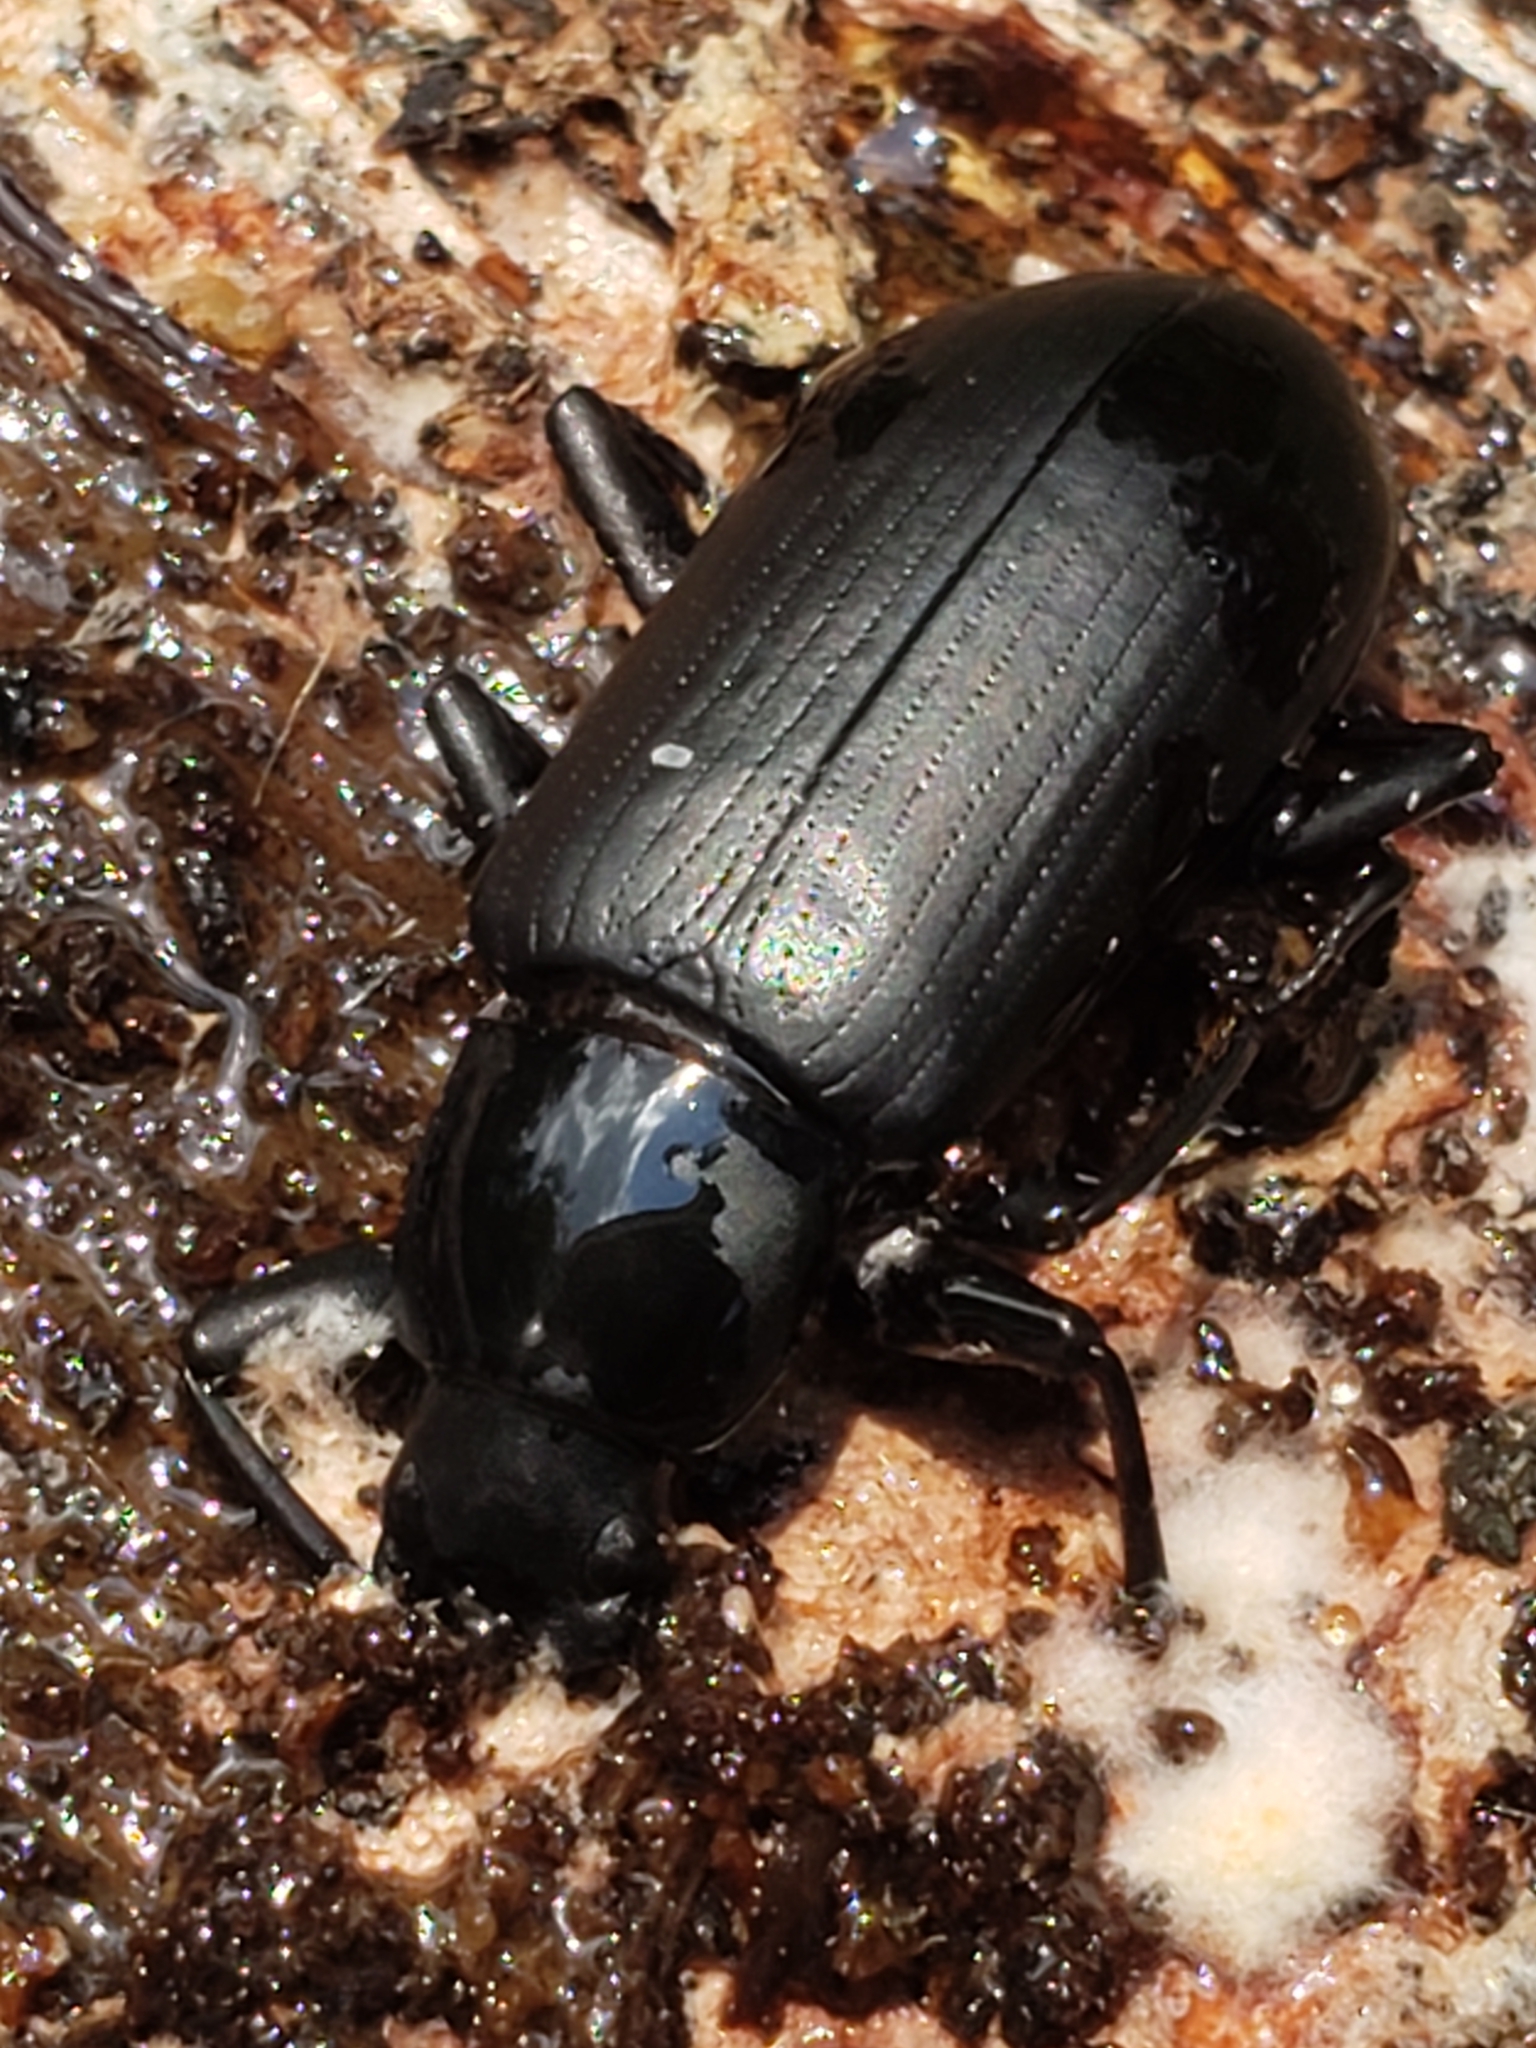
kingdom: Animalia
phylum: Arthropoda
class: Insecta
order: Coleoptera
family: Tenebrionidae
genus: Alobates
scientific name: Alobates
